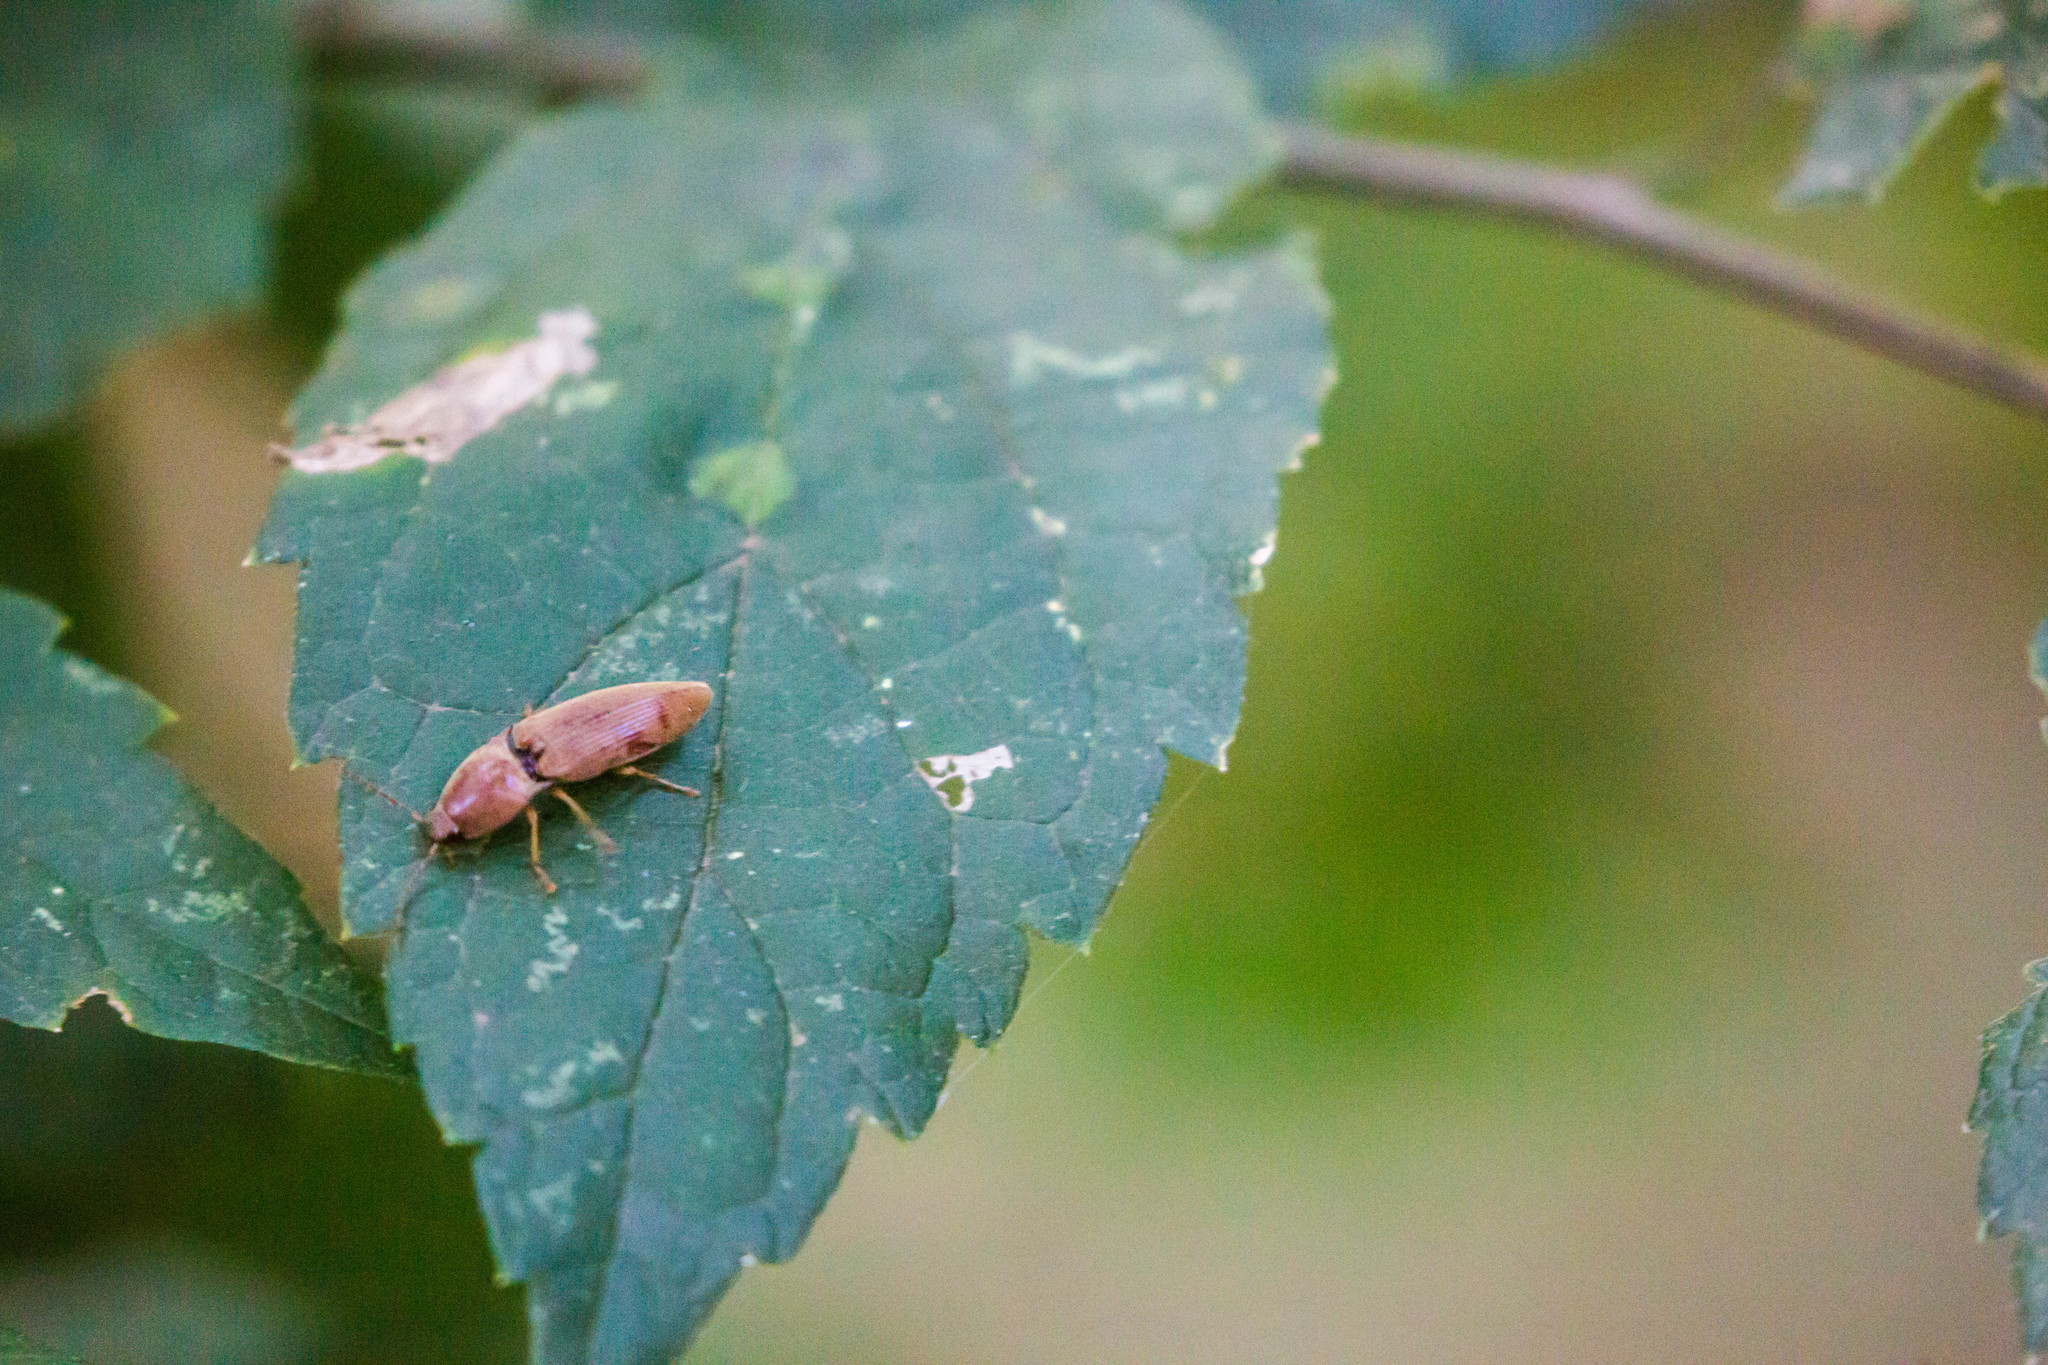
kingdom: Animalia
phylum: Arthropoda
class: Insecta
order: Coleoptera
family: Elateridae
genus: Monocrepidius
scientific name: Monocrepidius lividus
